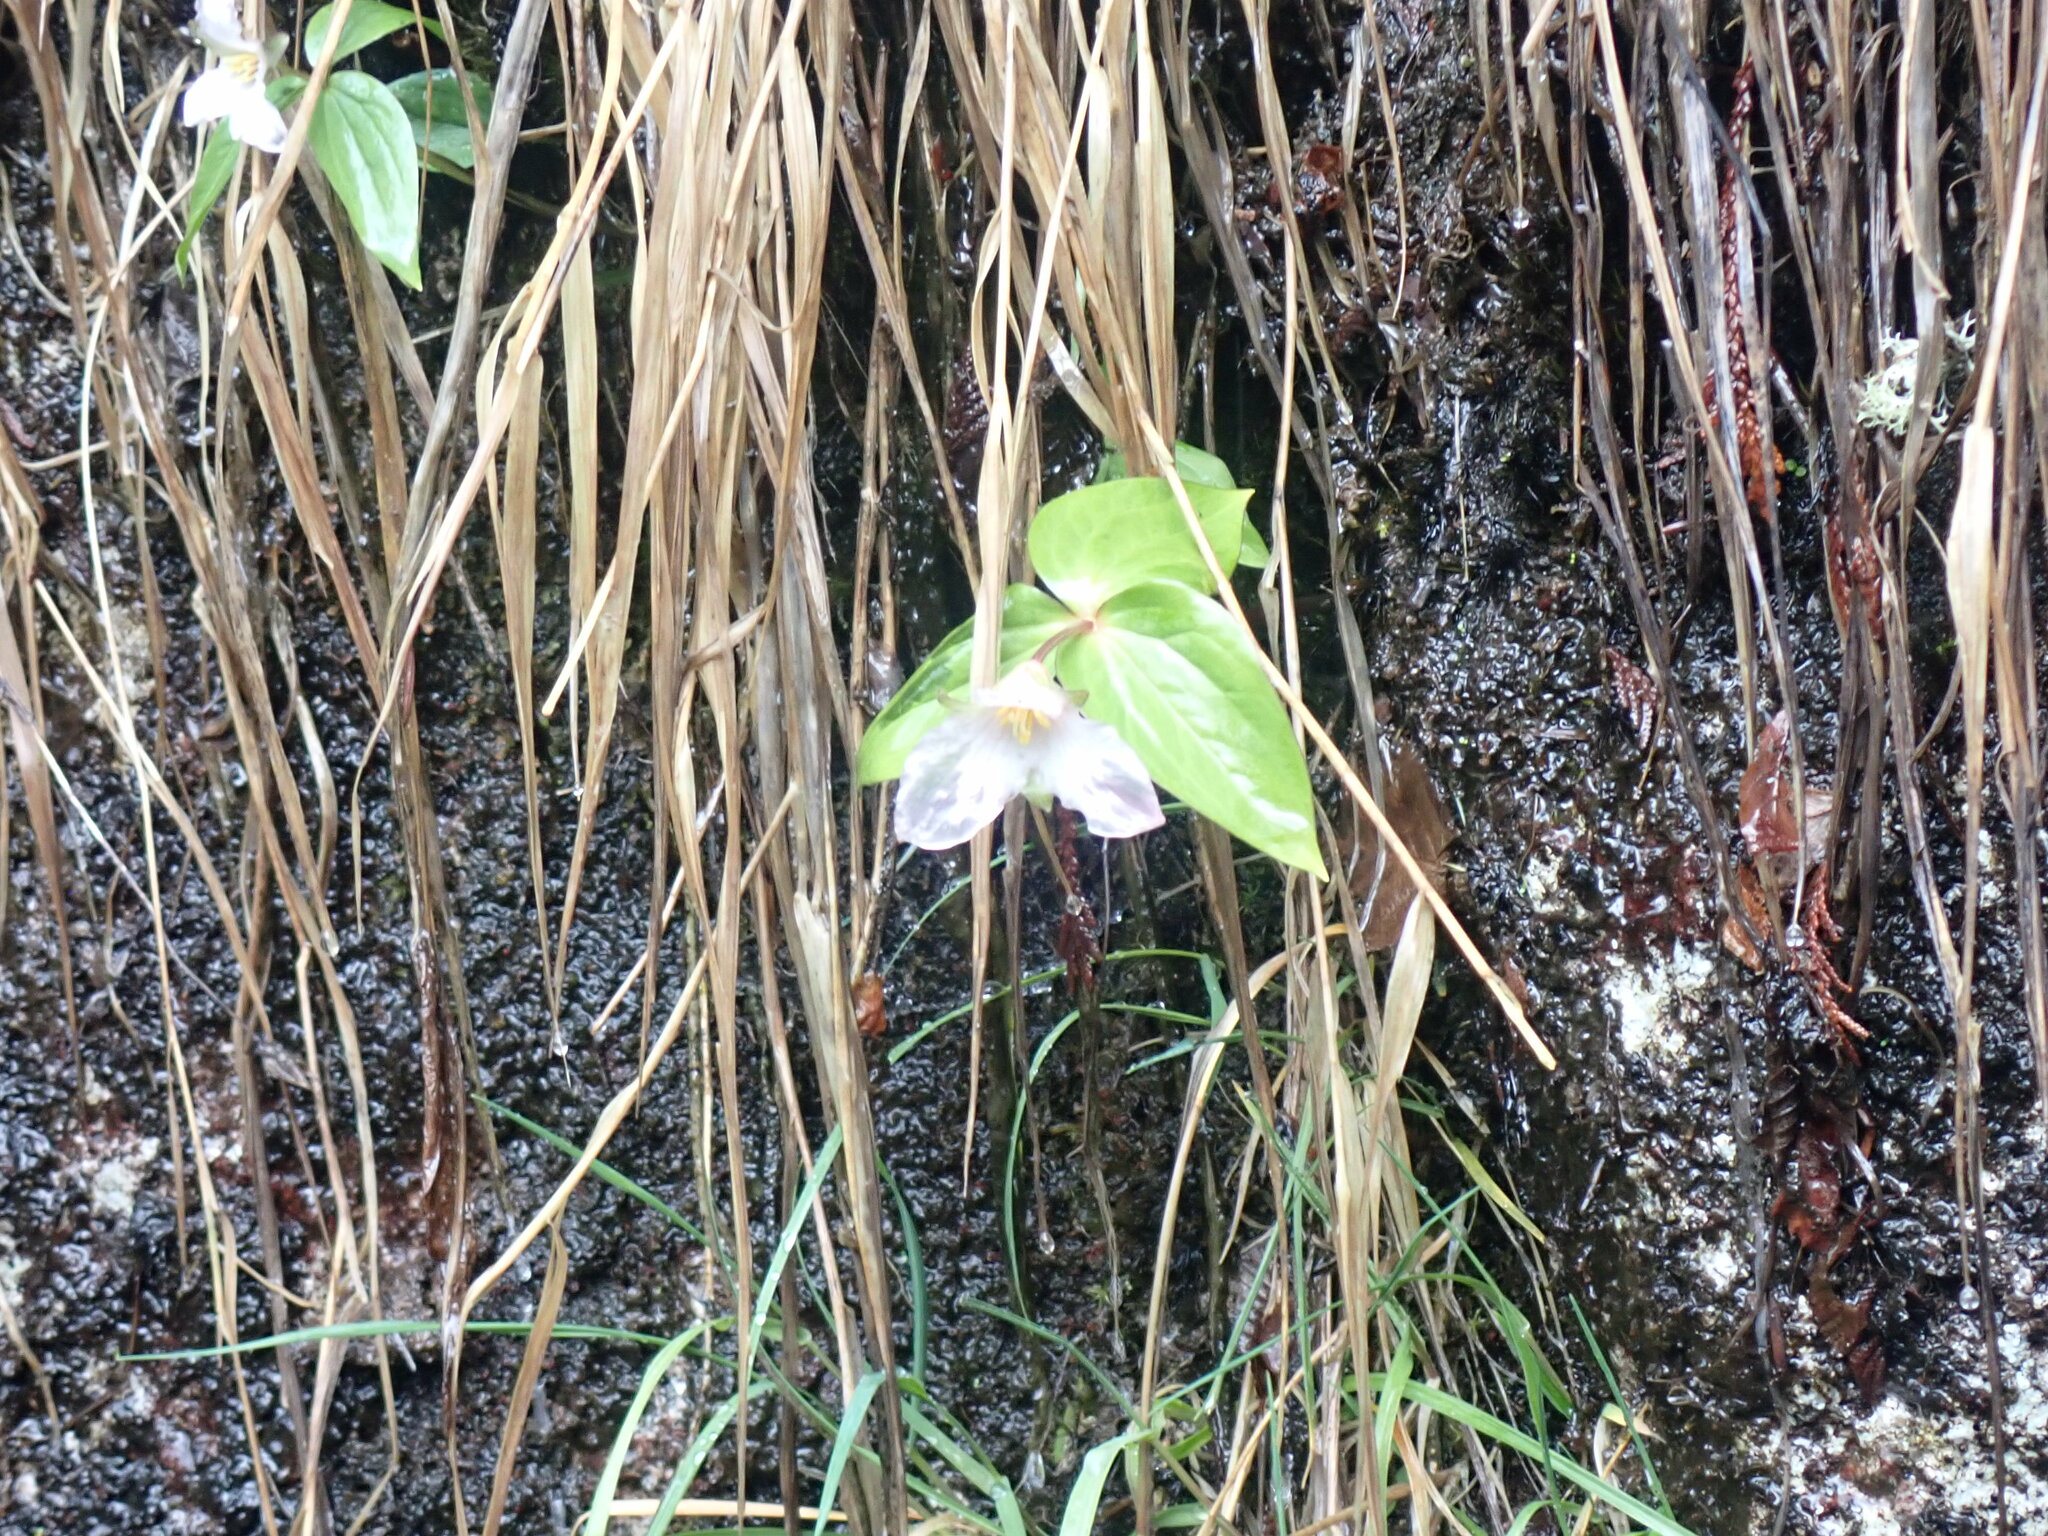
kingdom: Plantae
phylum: Tracheophyta
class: Liliopsida
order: Liliales
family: Melanthiaceae
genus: Trillium
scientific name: Trillium hibbersonii
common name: Hibberson's trillium
